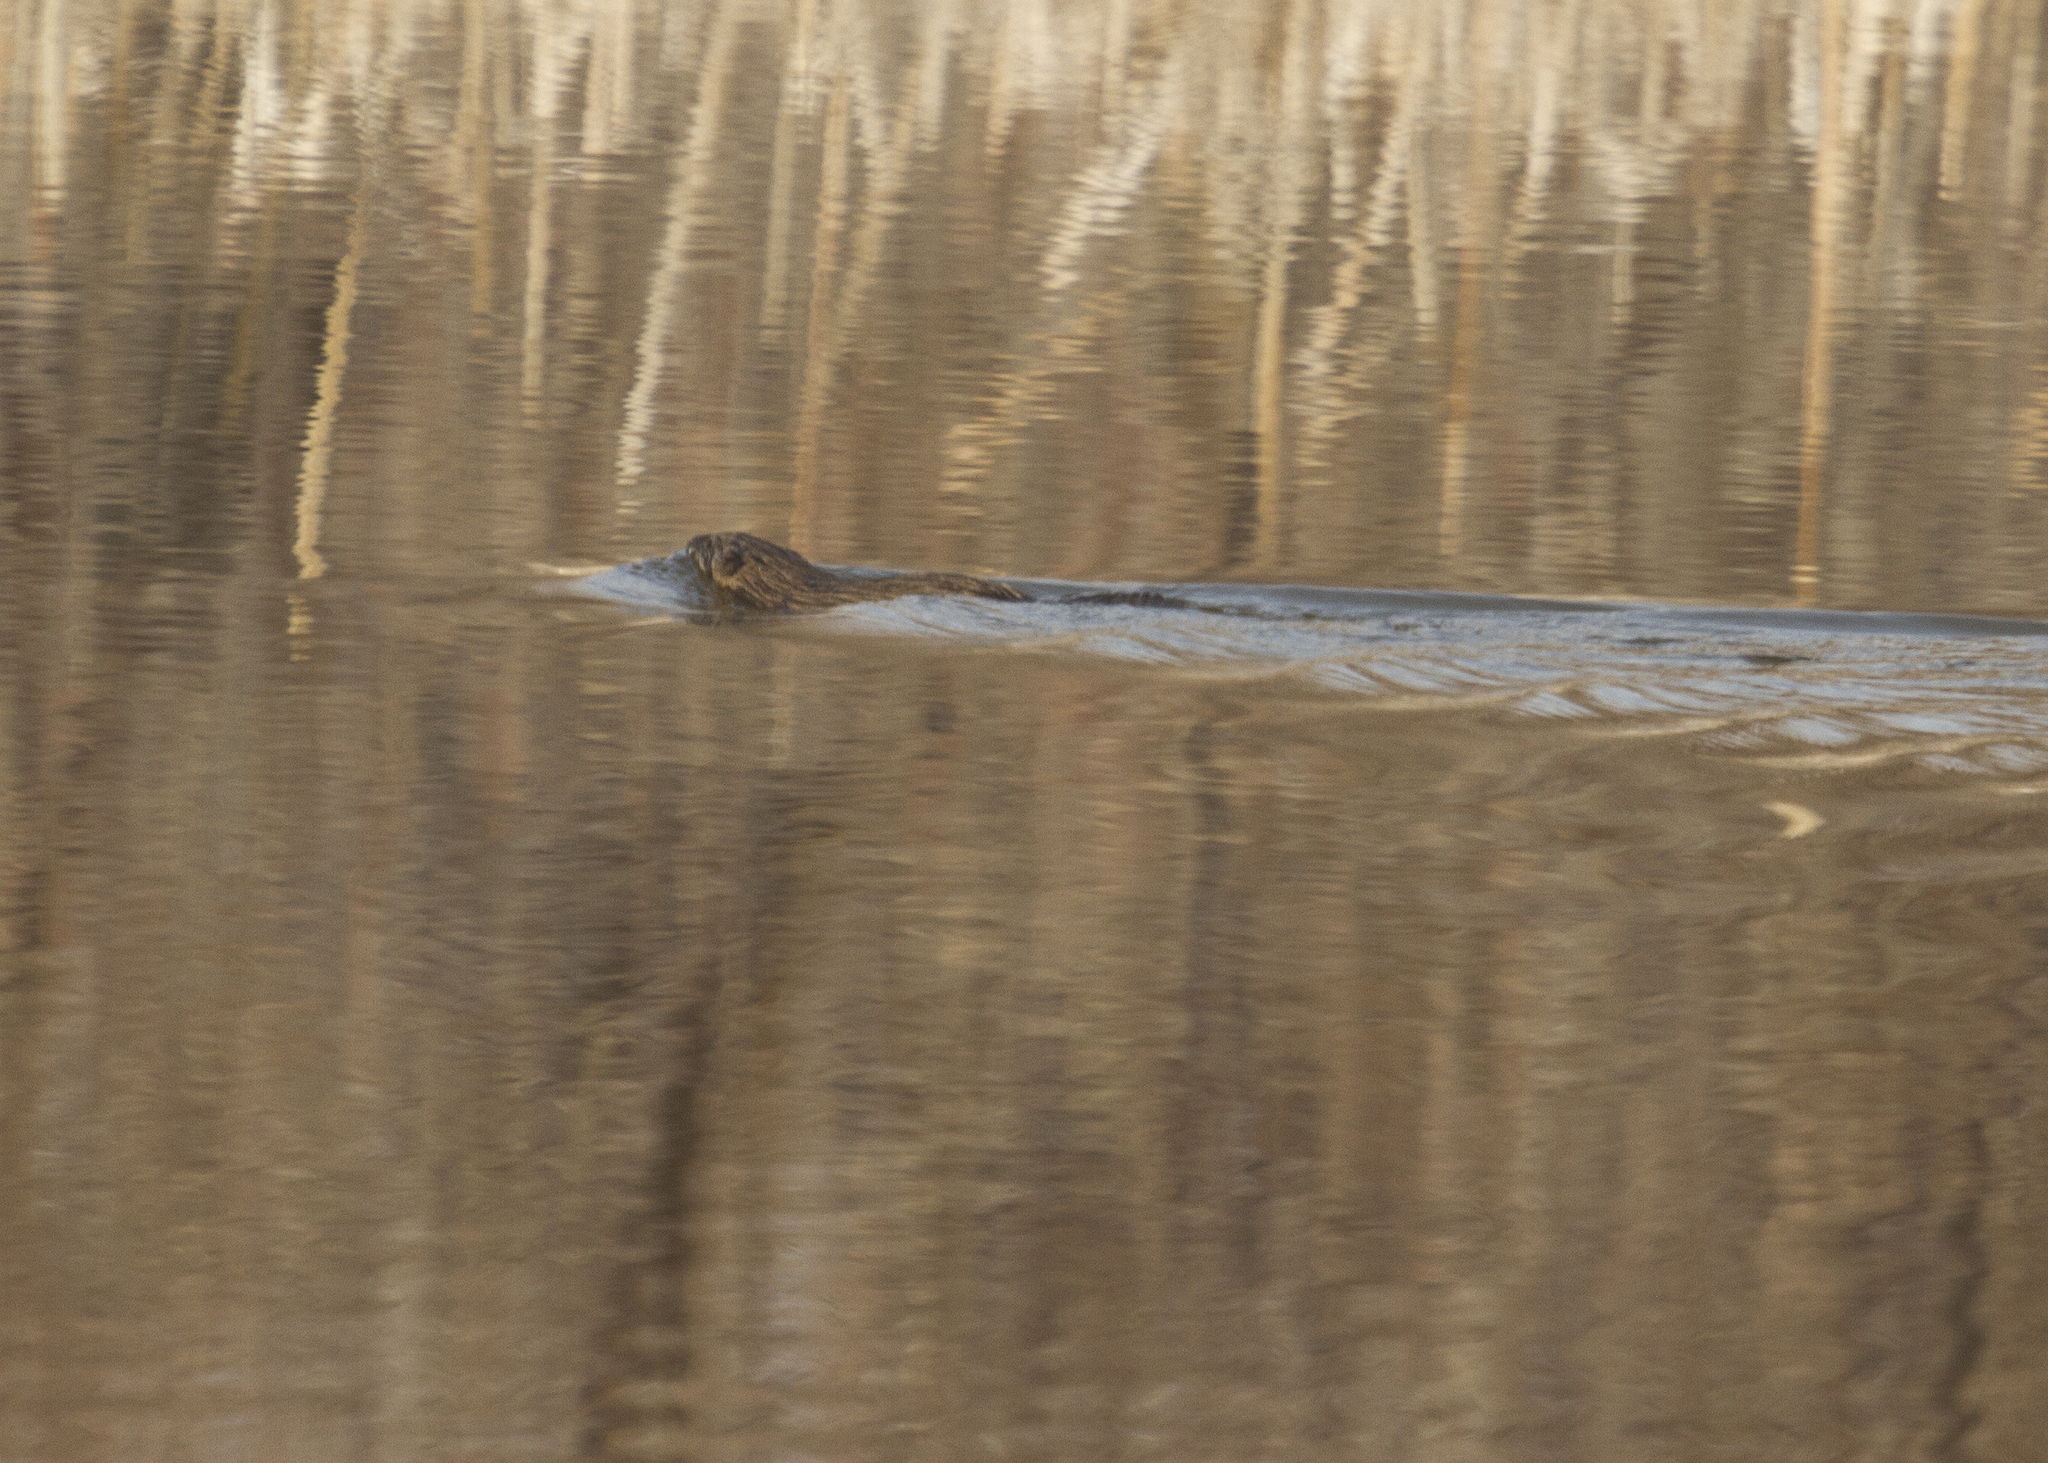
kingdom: Animalia
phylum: Chordata
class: Mammalia
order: Rodentia
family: Cricetidae
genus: Ondatra
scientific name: Ondatra zibethicus
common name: Muskrat
